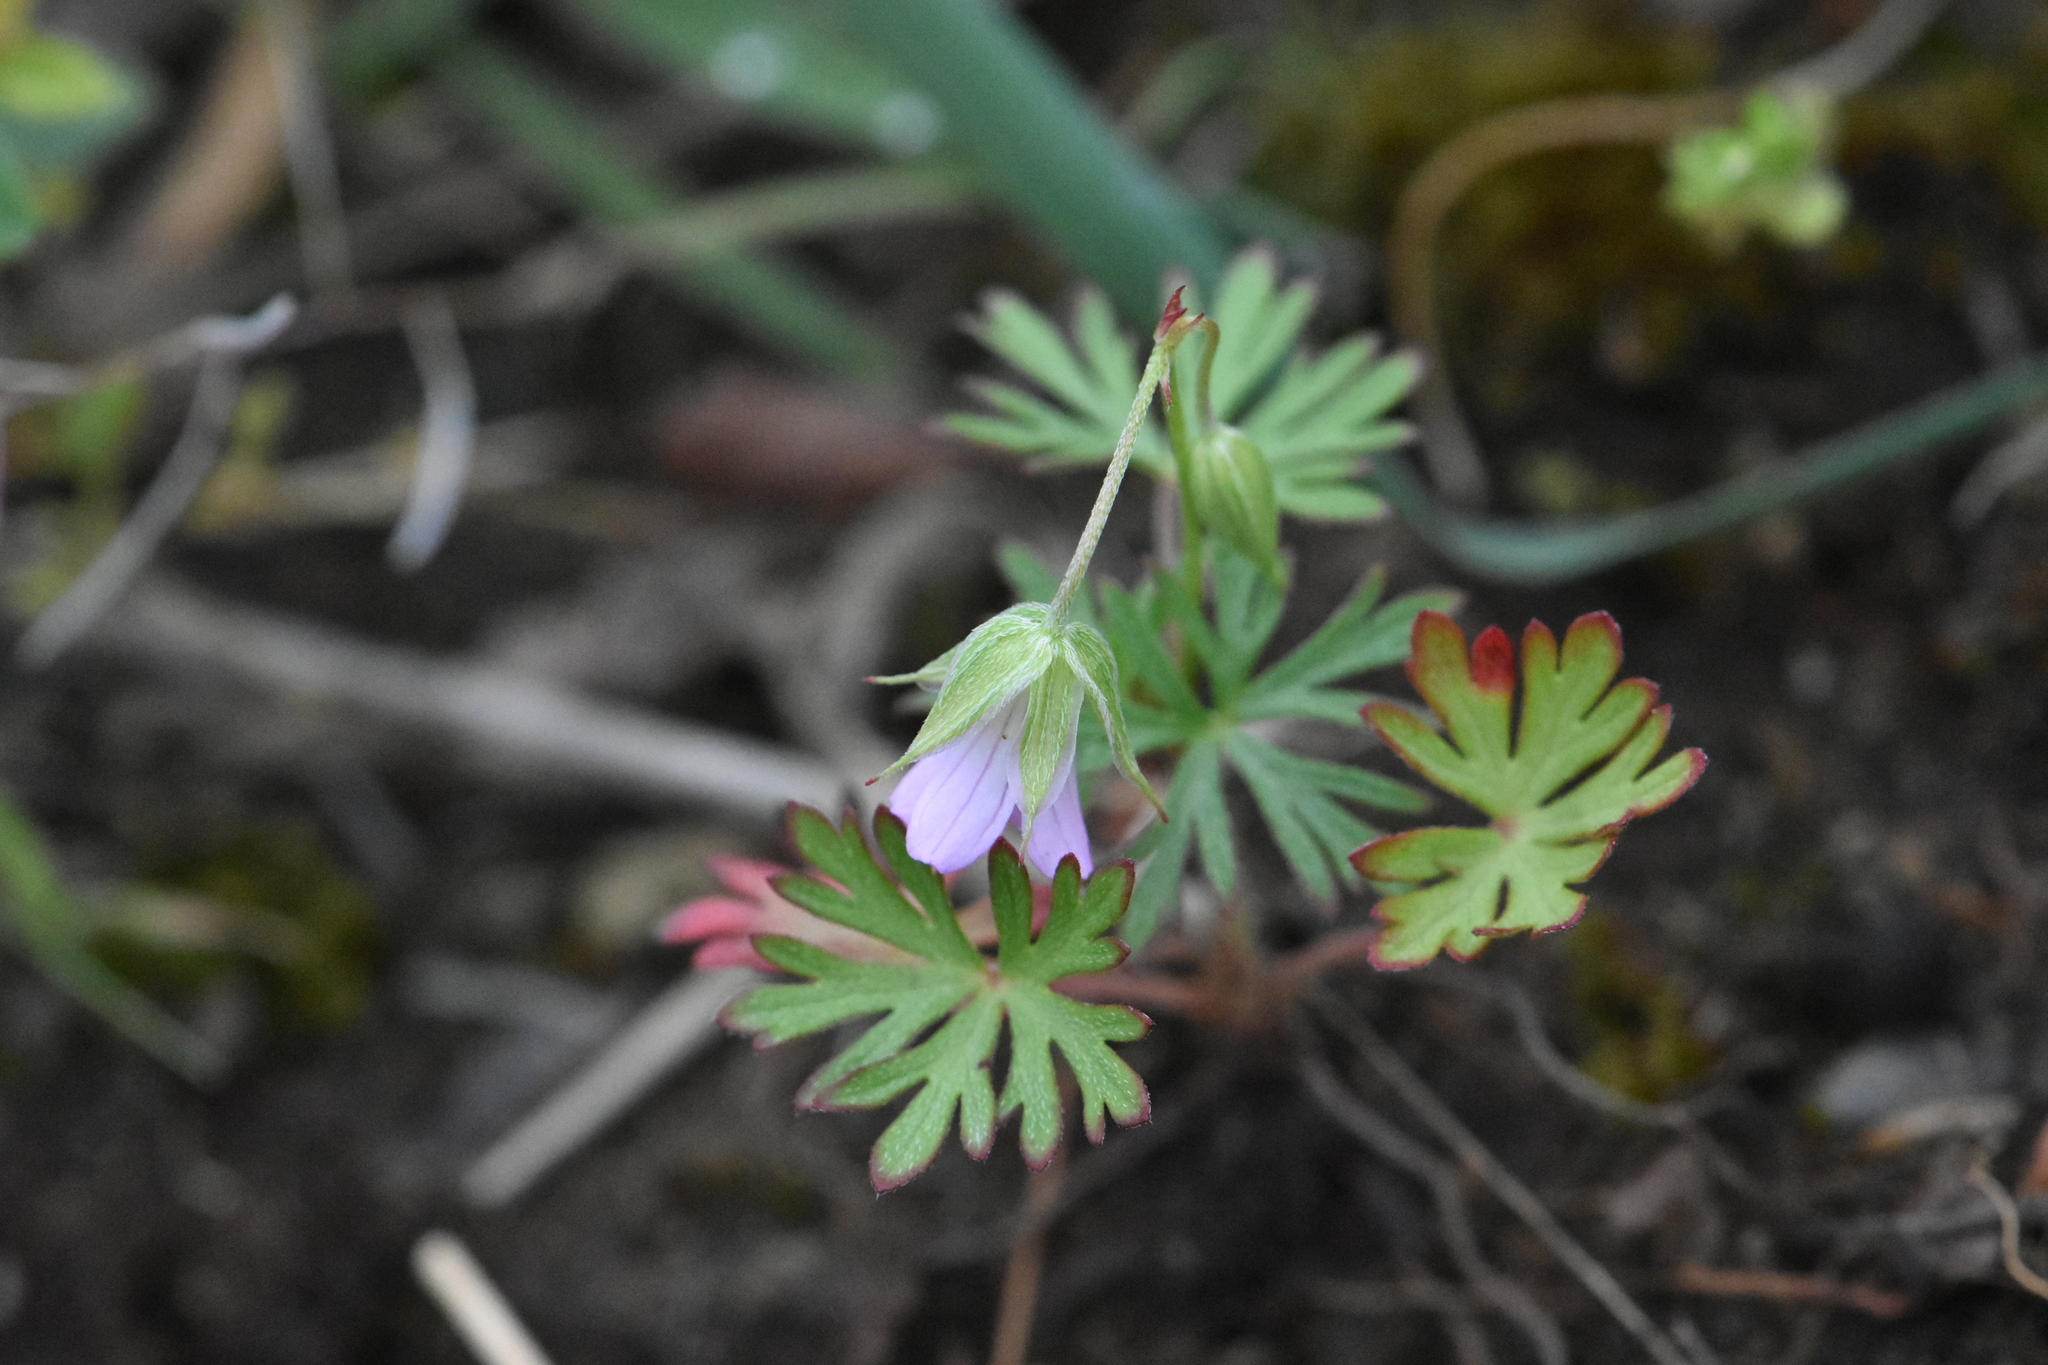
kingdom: Plantae
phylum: Tracheophyta
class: Magnoliopsida
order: Geraniales
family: Geraniaceae
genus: Geranium
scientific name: Geranium columbinum
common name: Long-stalked crane's-bill
